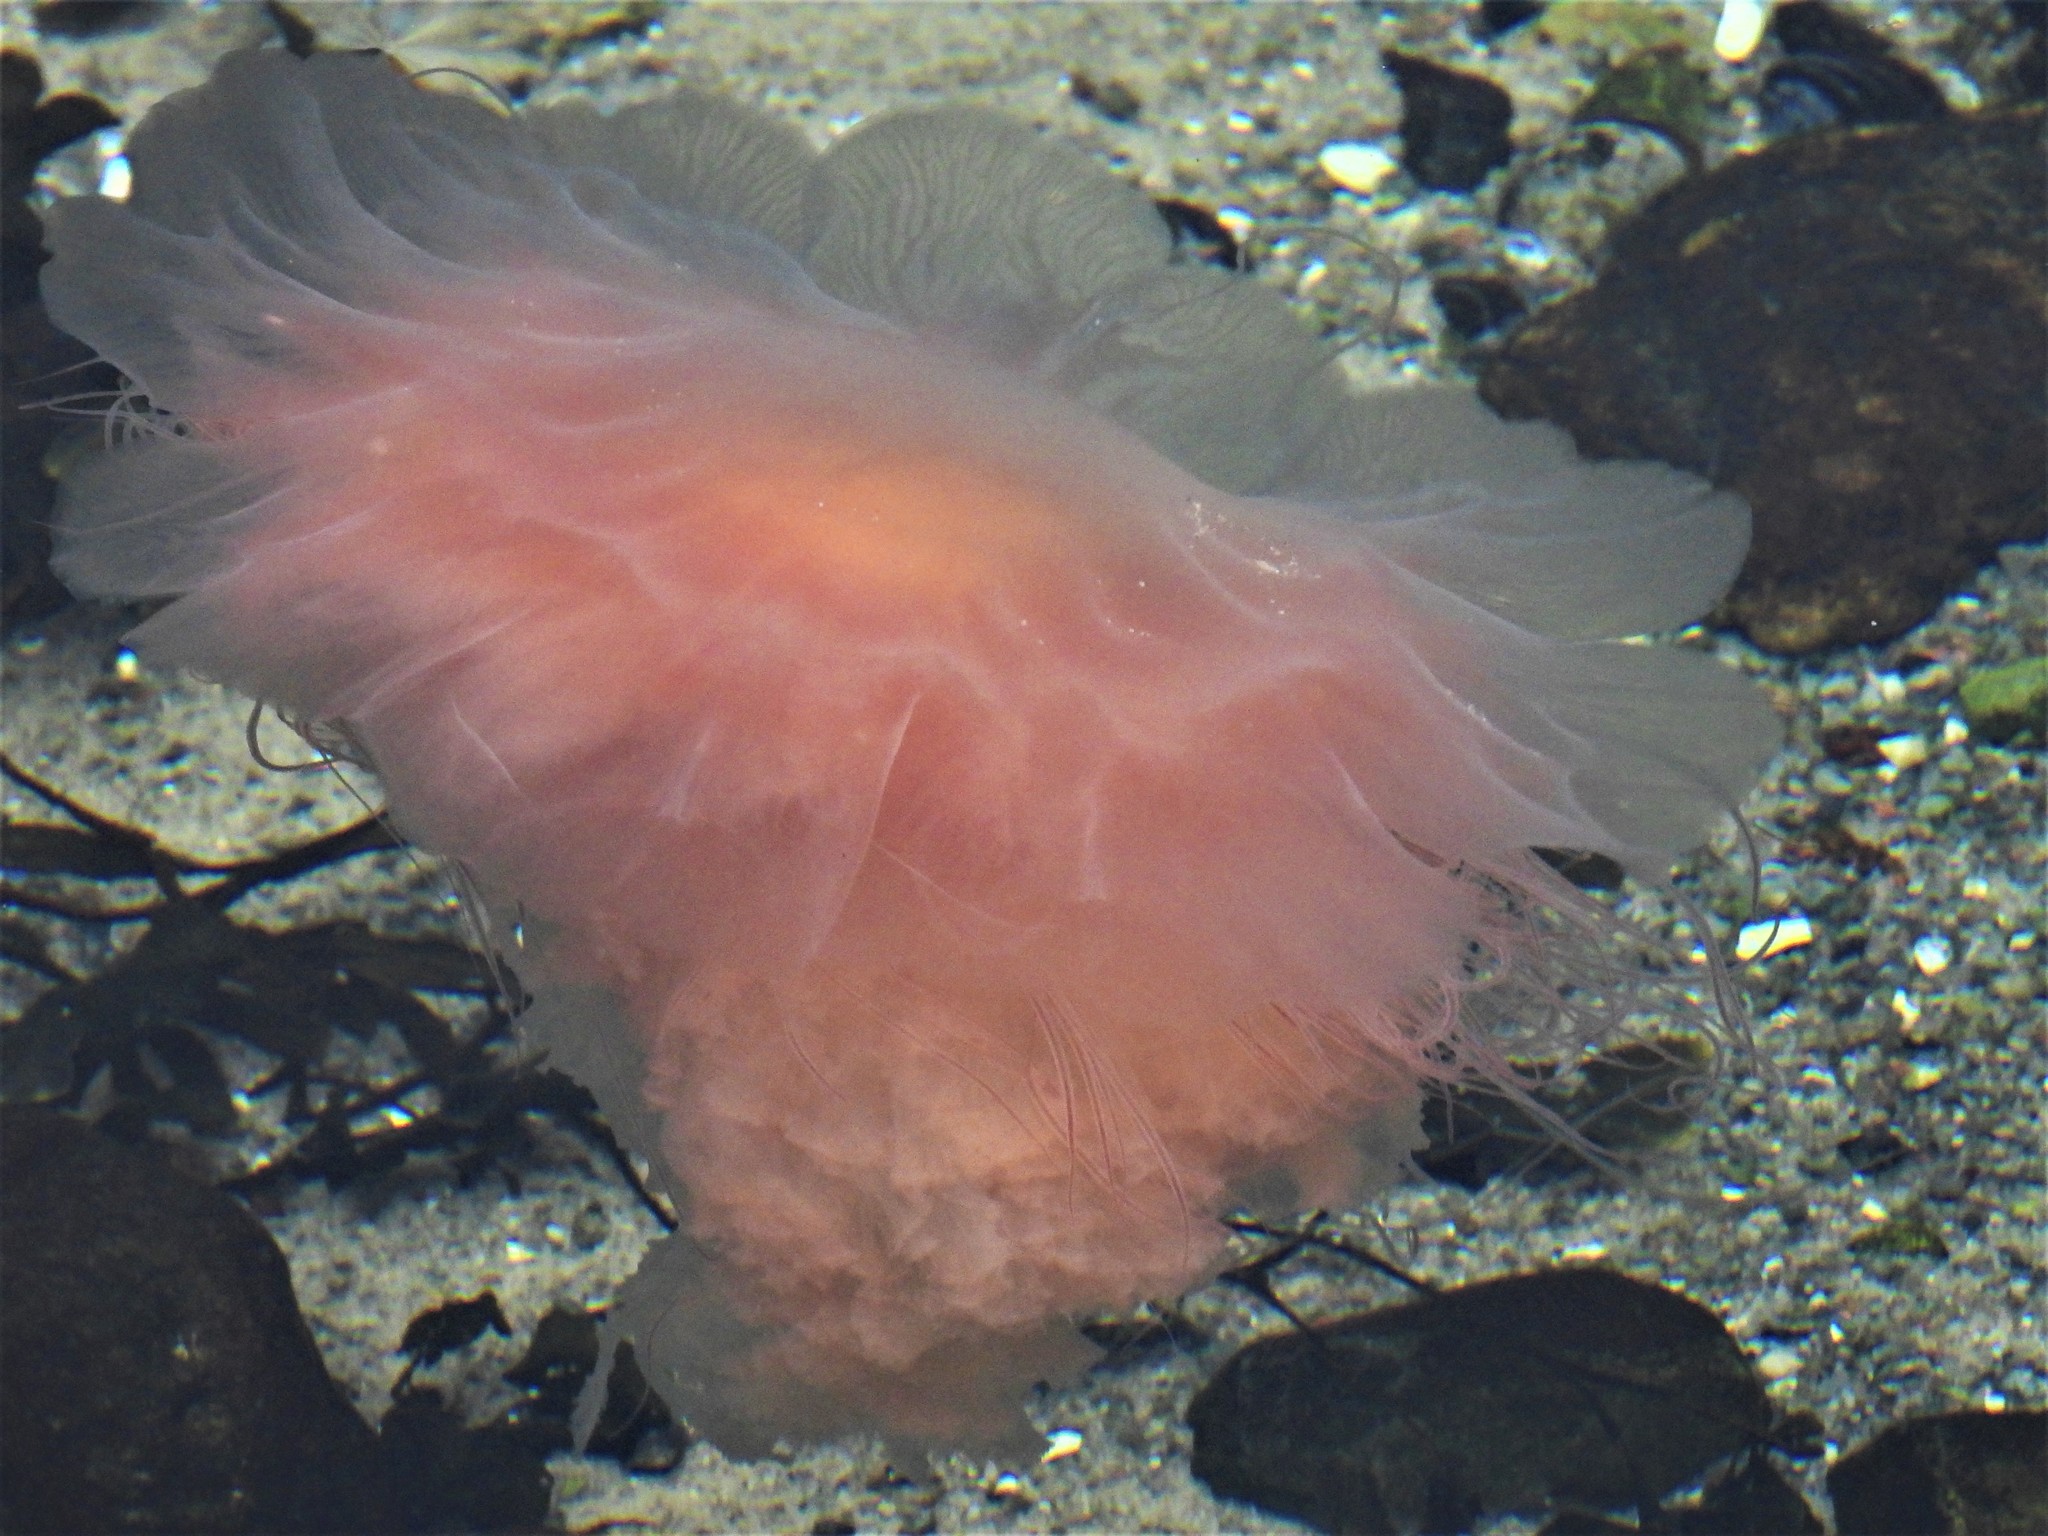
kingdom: Animalia
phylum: Cnidaria
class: Scyphozoa
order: Semaeostomeae
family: Cyaneidae
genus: Cyanea
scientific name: Cyanea capillata
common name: Lion's mane jellyfish
